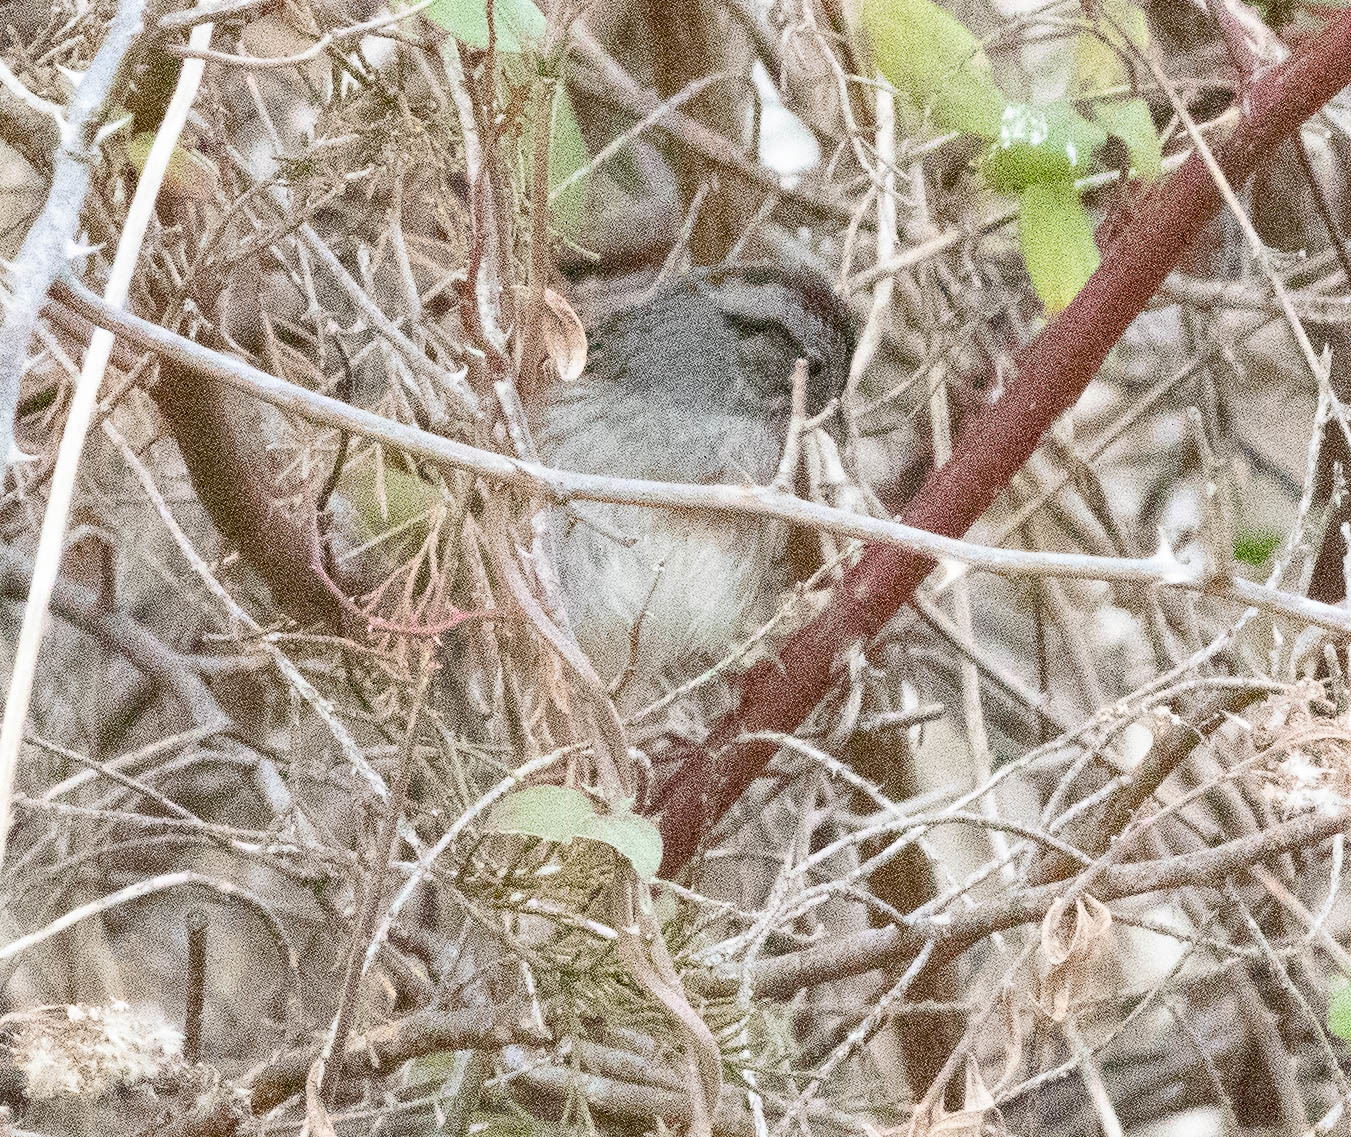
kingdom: Animalia
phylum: Chordata
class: Aves
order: Passeriformes
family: Passerellidae
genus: Melospiza
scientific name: Melospiza georgiana
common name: Swamp sparrow
